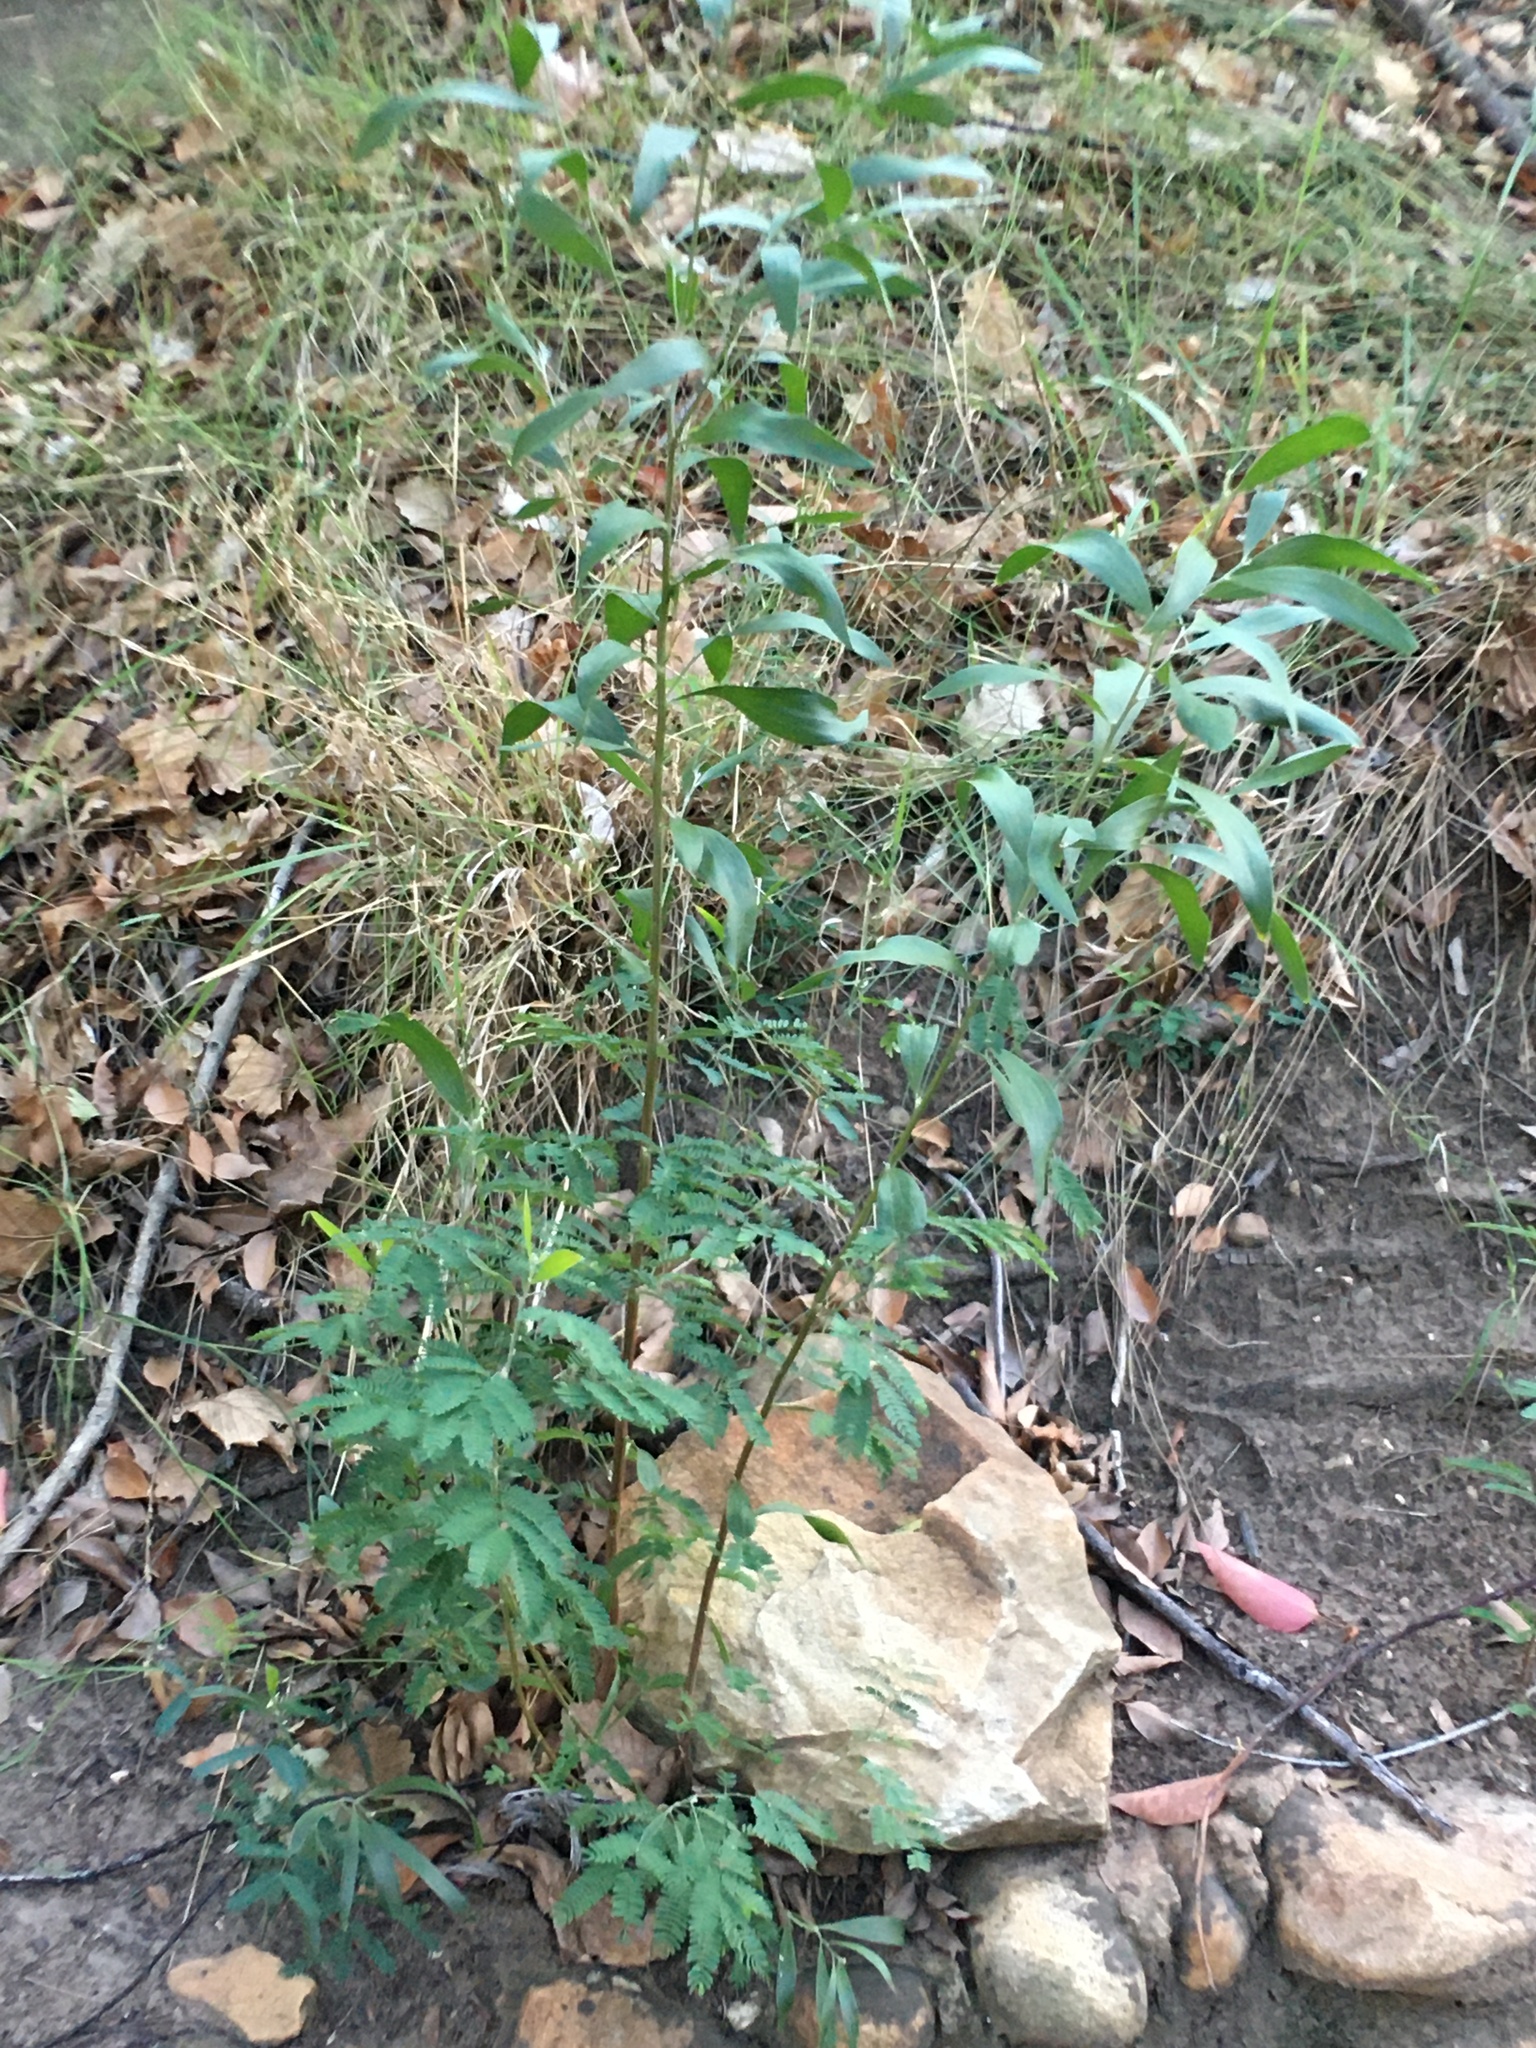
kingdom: Plantae
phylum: Tracheophyta
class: Magnoliopsida
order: Fabales
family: Fabaceae
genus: Acacia
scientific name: Acacia melanoxylon
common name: Blackwood
